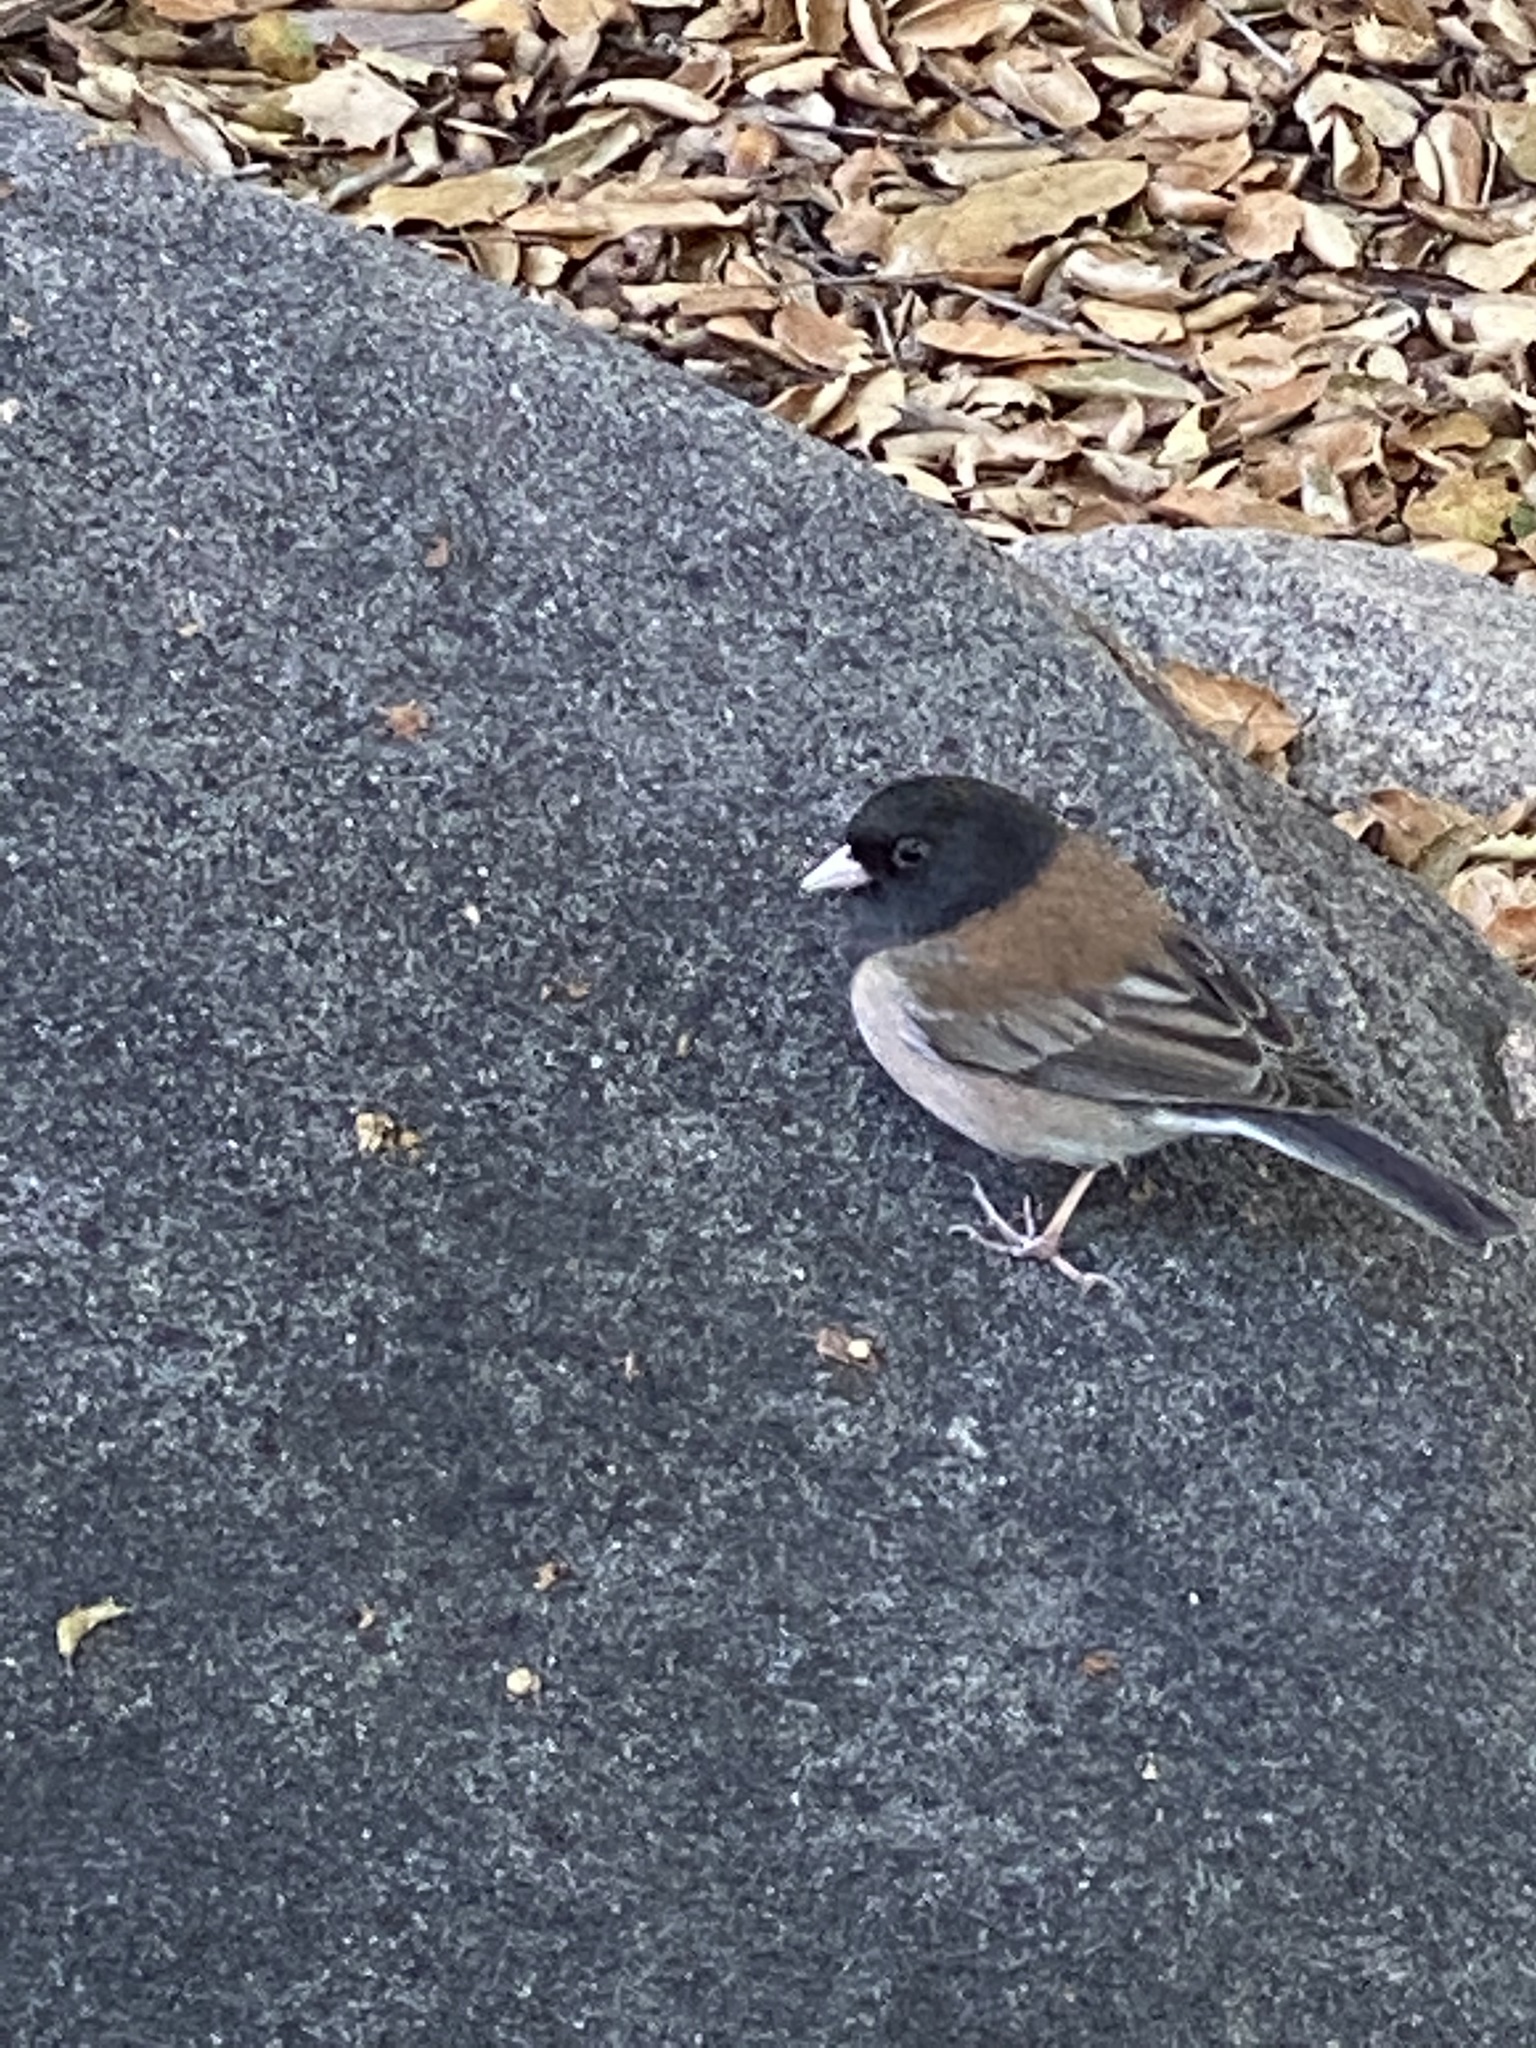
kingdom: Animalia
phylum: Chordata
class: Aves
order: Passeriformes
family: Passerellidae
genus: Junco
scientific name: Junco hyemalis
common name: Dark-eyed junco
